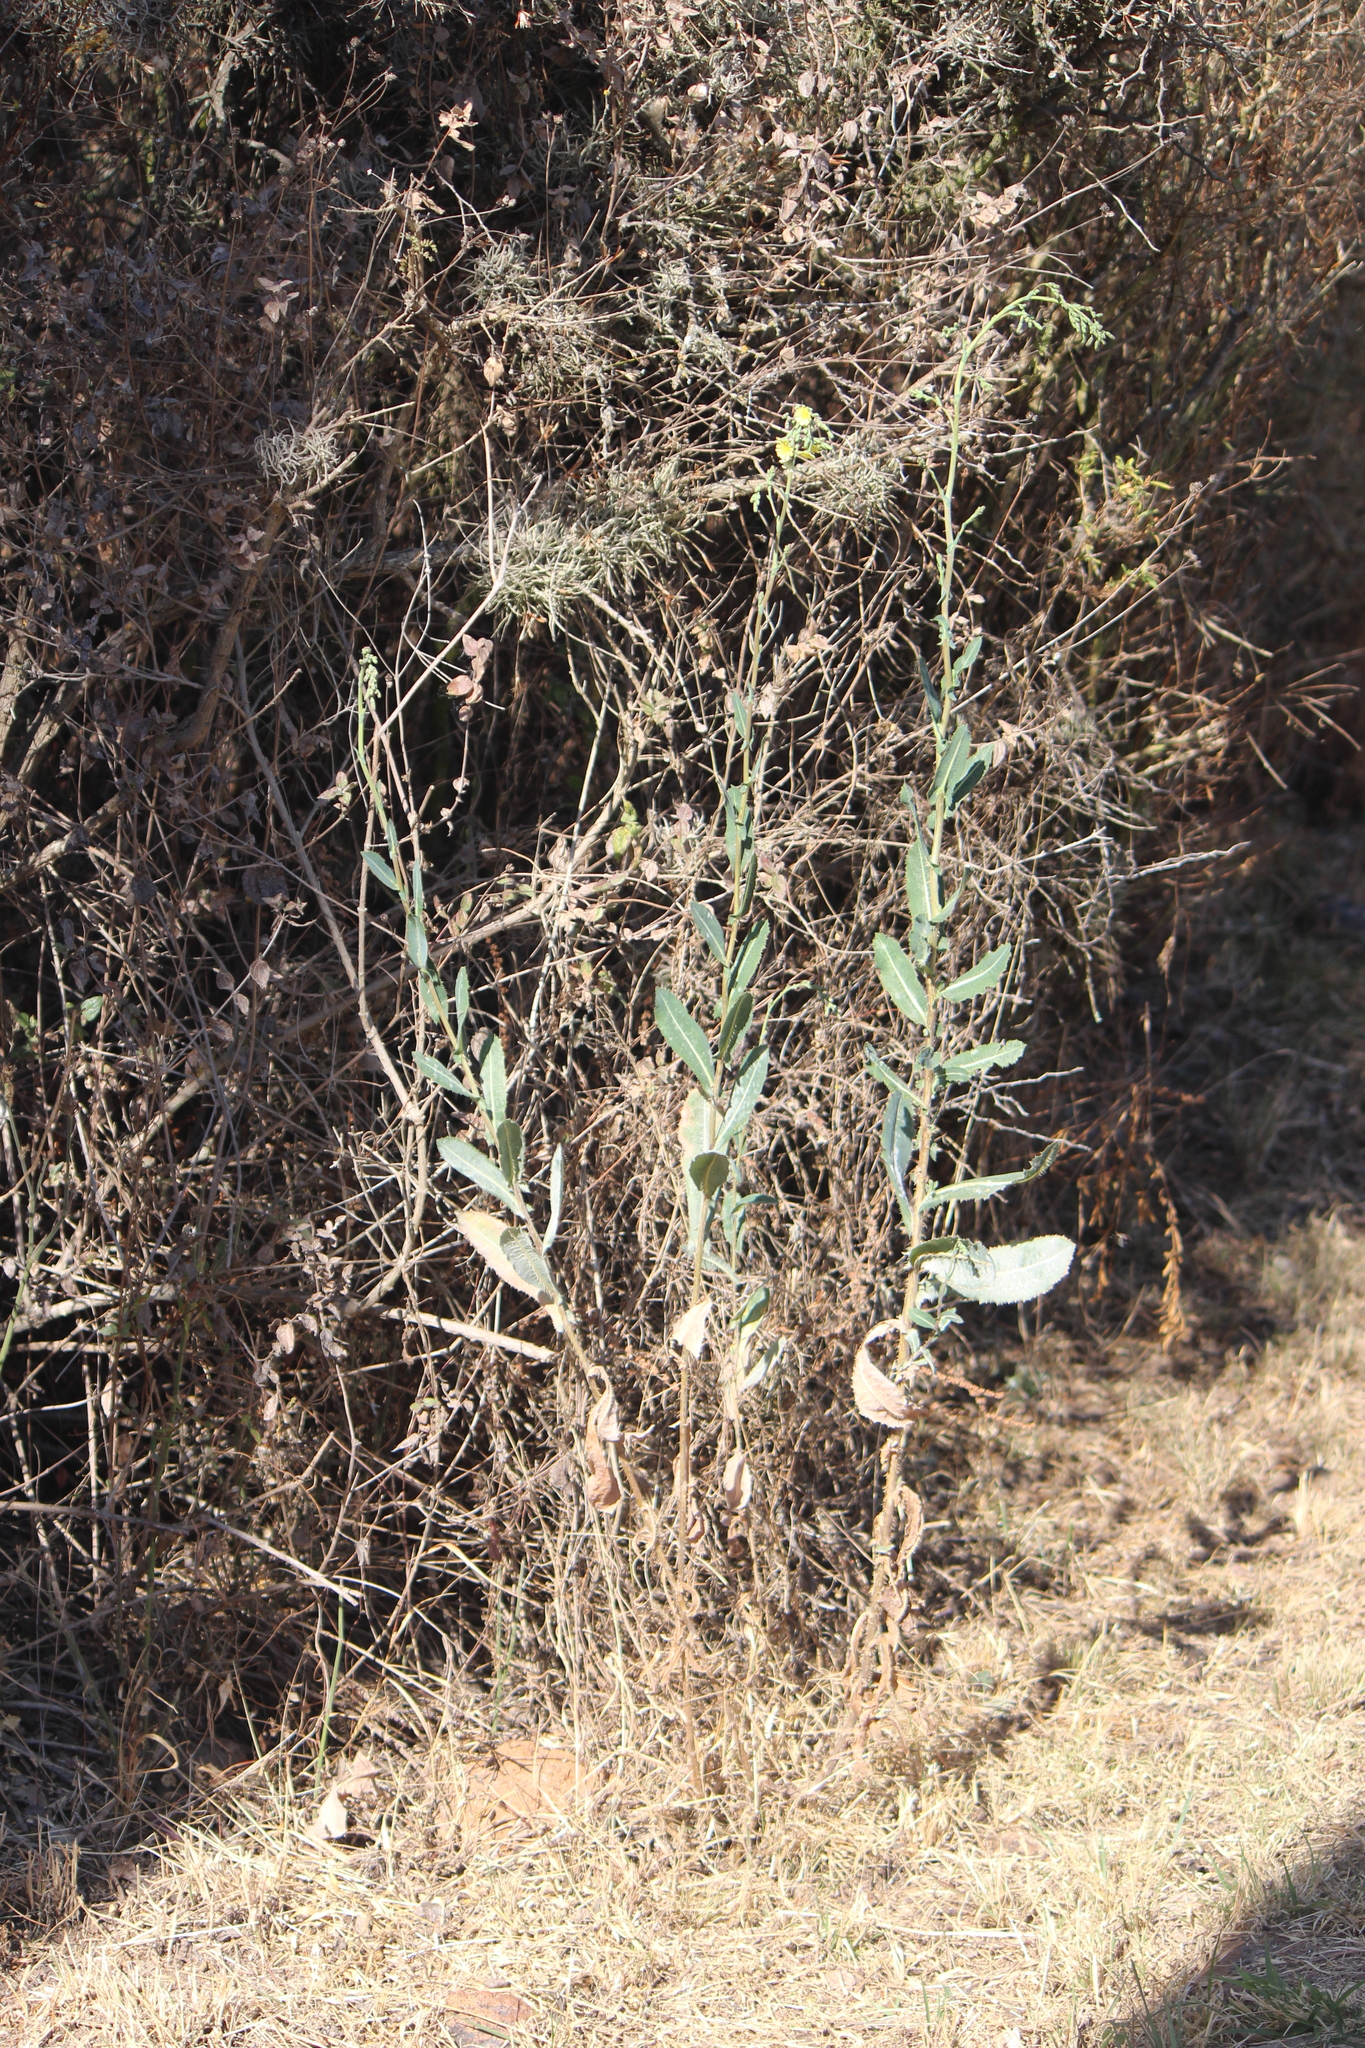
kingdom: Plantae
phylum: Tracheophyta
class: Magnoliopsida
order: Asterales
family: Asteraceae
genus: Lactuca
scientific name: Lactuca serriola
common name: Prickly lettuce
